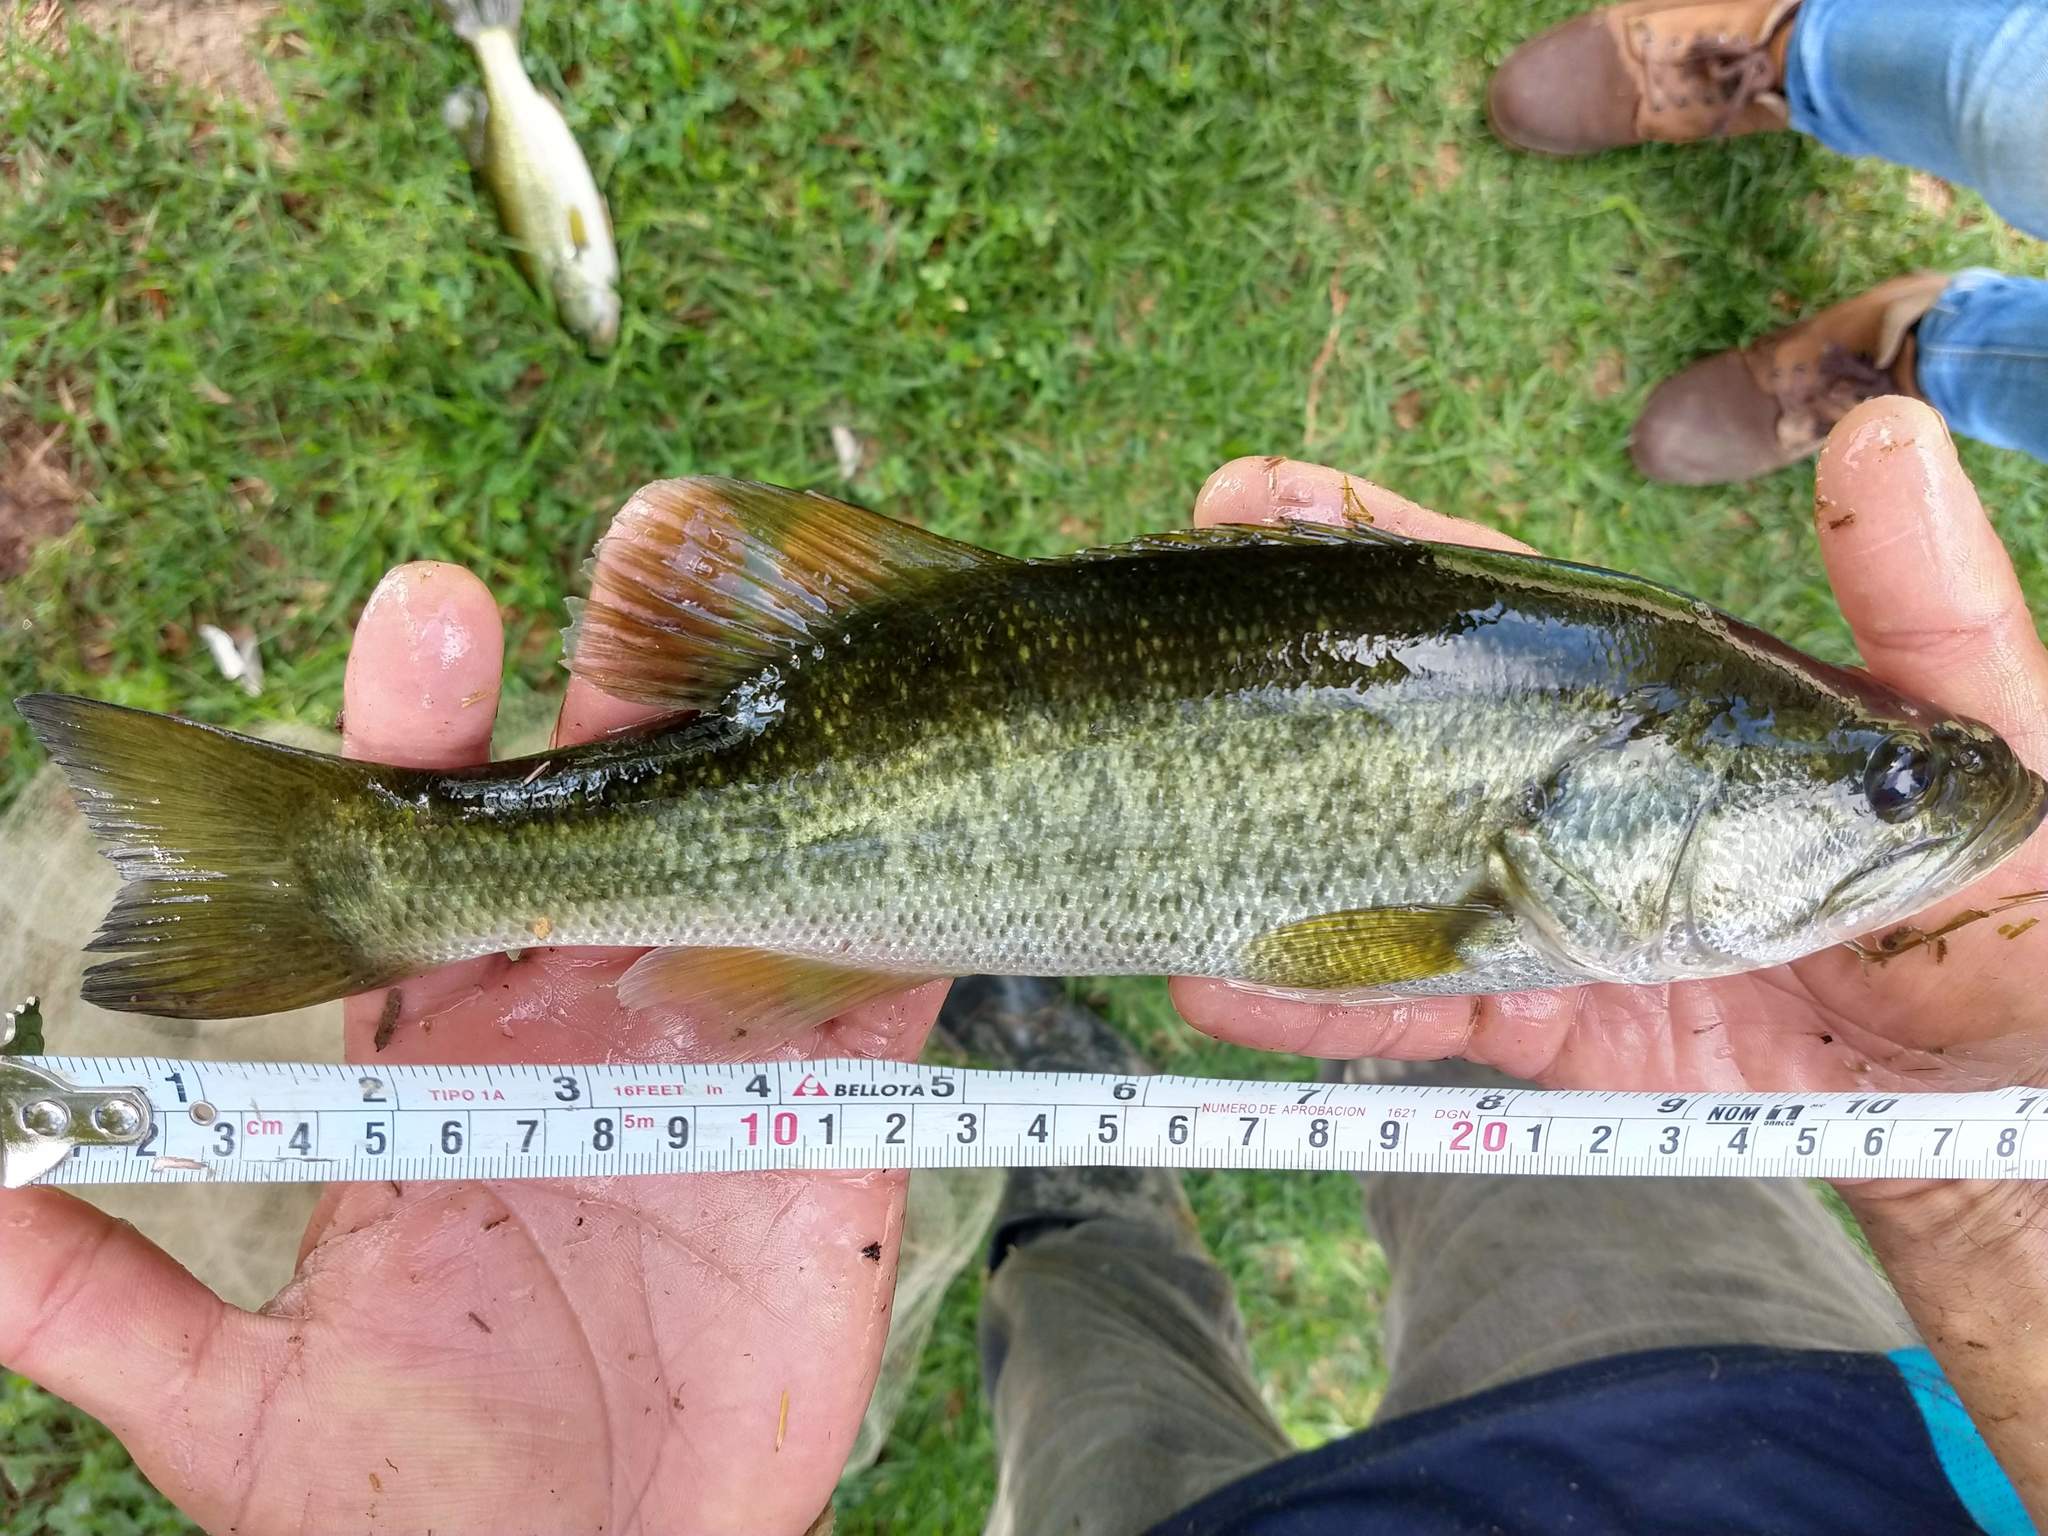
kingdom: Animalia
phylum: Chordata
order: Perciformes
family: Centrarchidae
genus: Micropterus
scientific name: Micropterus
